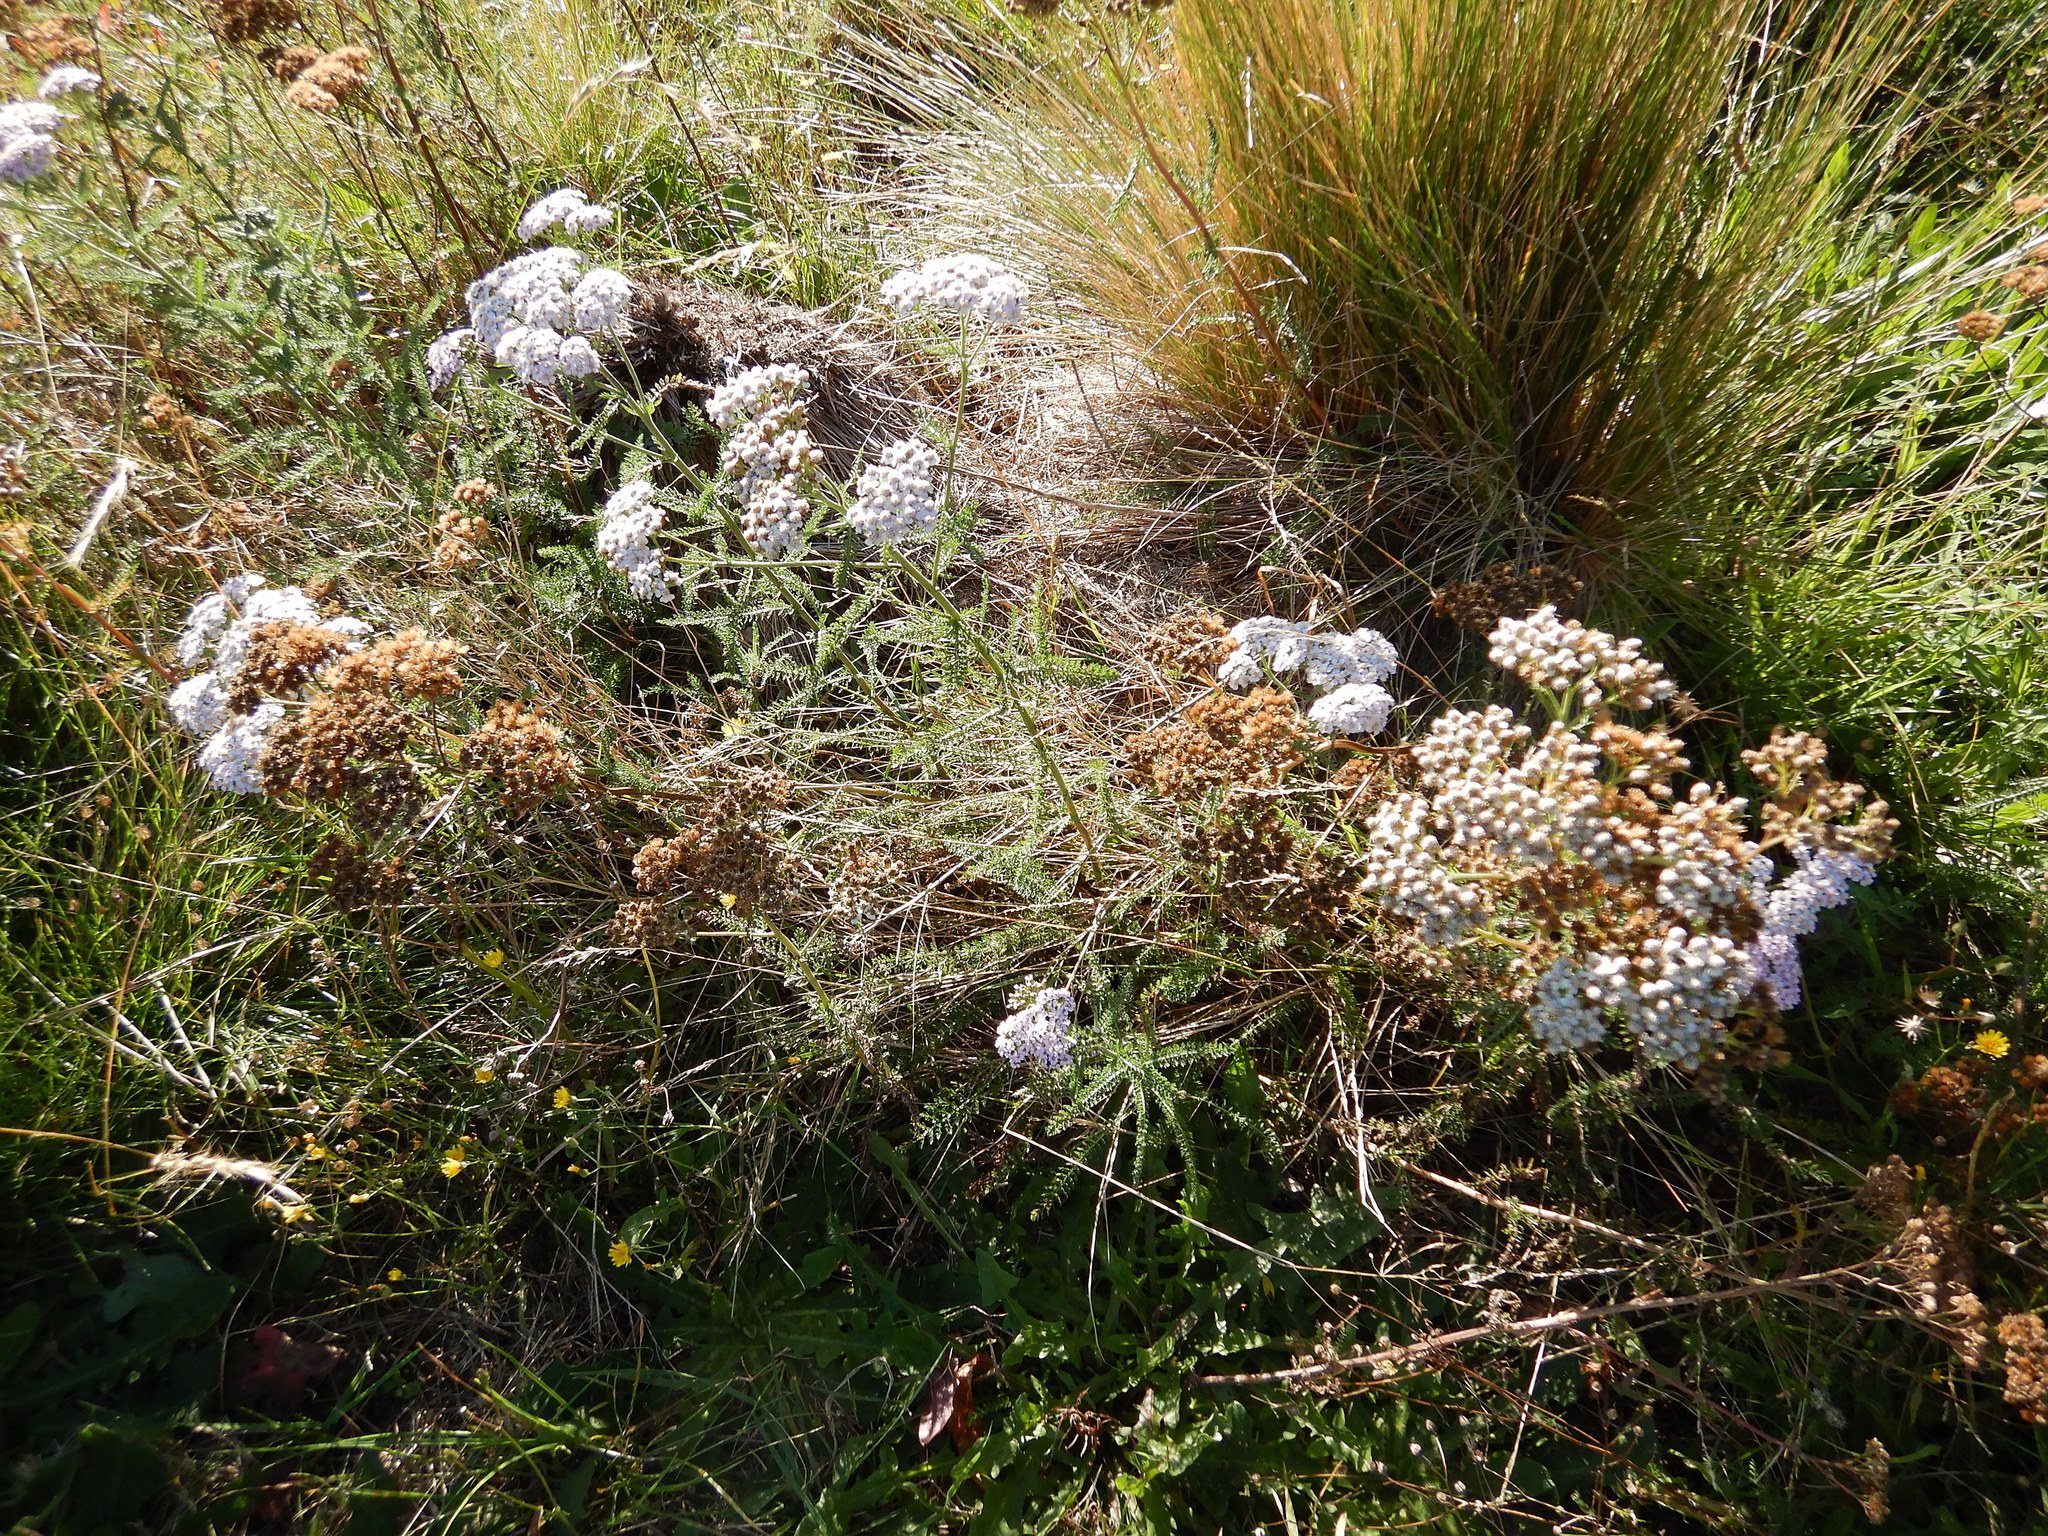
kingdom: Plantae
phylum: Tracheophyta
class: Magnoliopsida
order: Asterales
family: Asteraceae
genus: Achillea
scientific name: Achillea millefolium
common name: Yarrow
